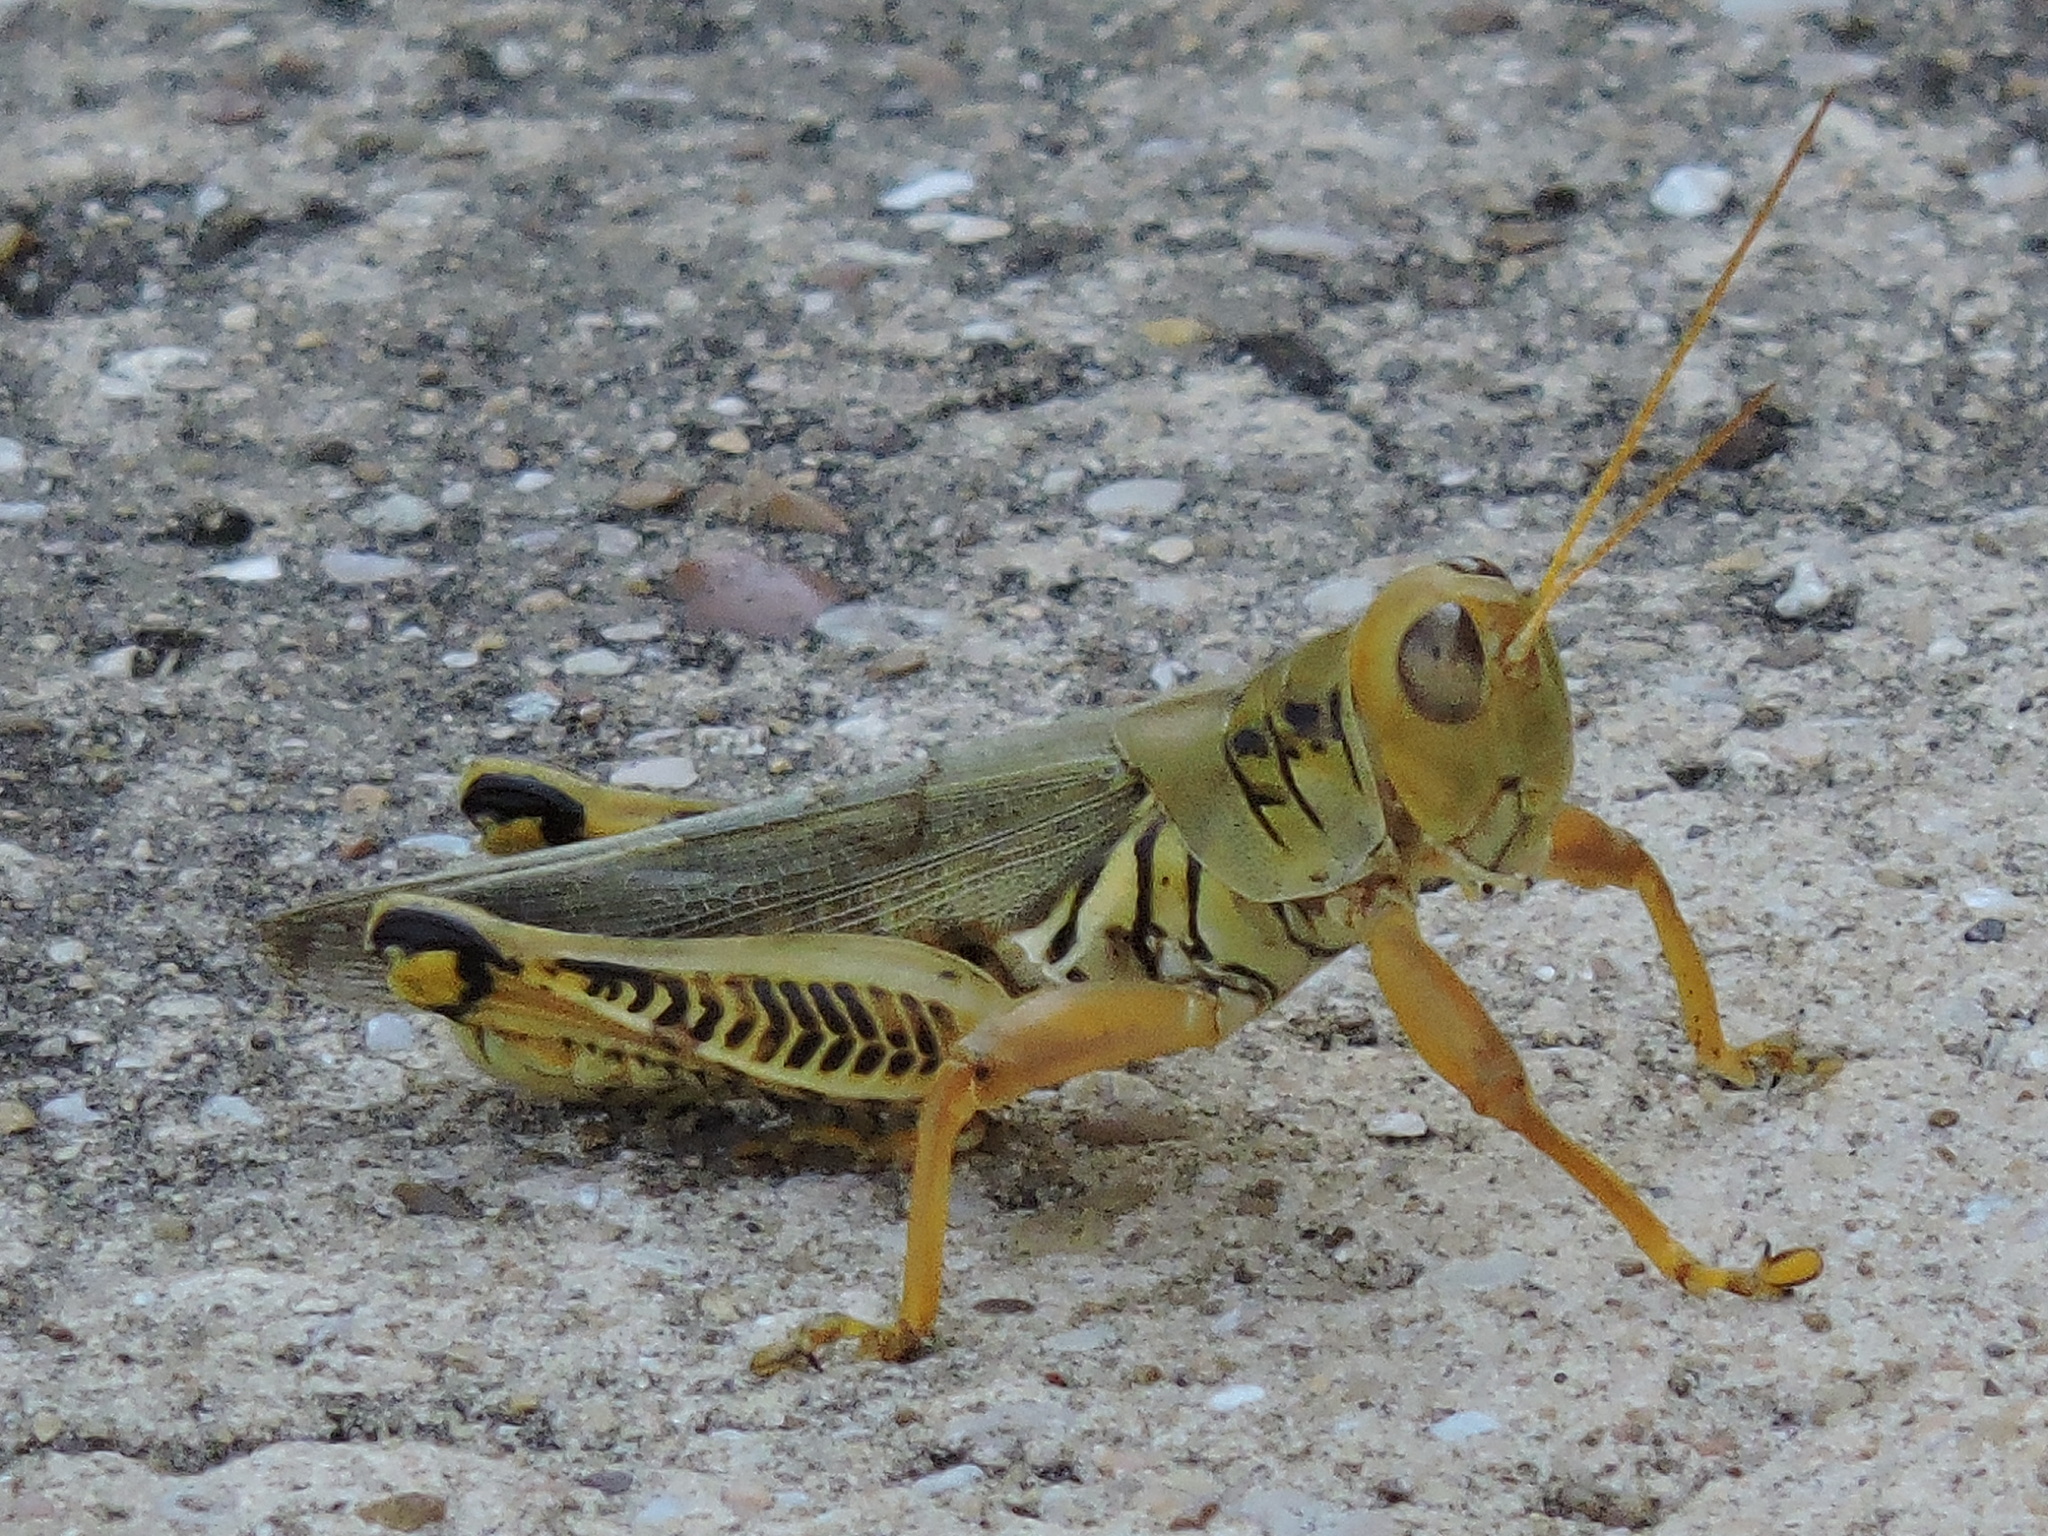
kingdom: Animalia
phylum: Arthropoda
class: Insecta
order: Orthoptera
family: Acrididae
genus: Melanoplus
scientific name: Melanoplus differentialis
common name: Differential grasshopper
